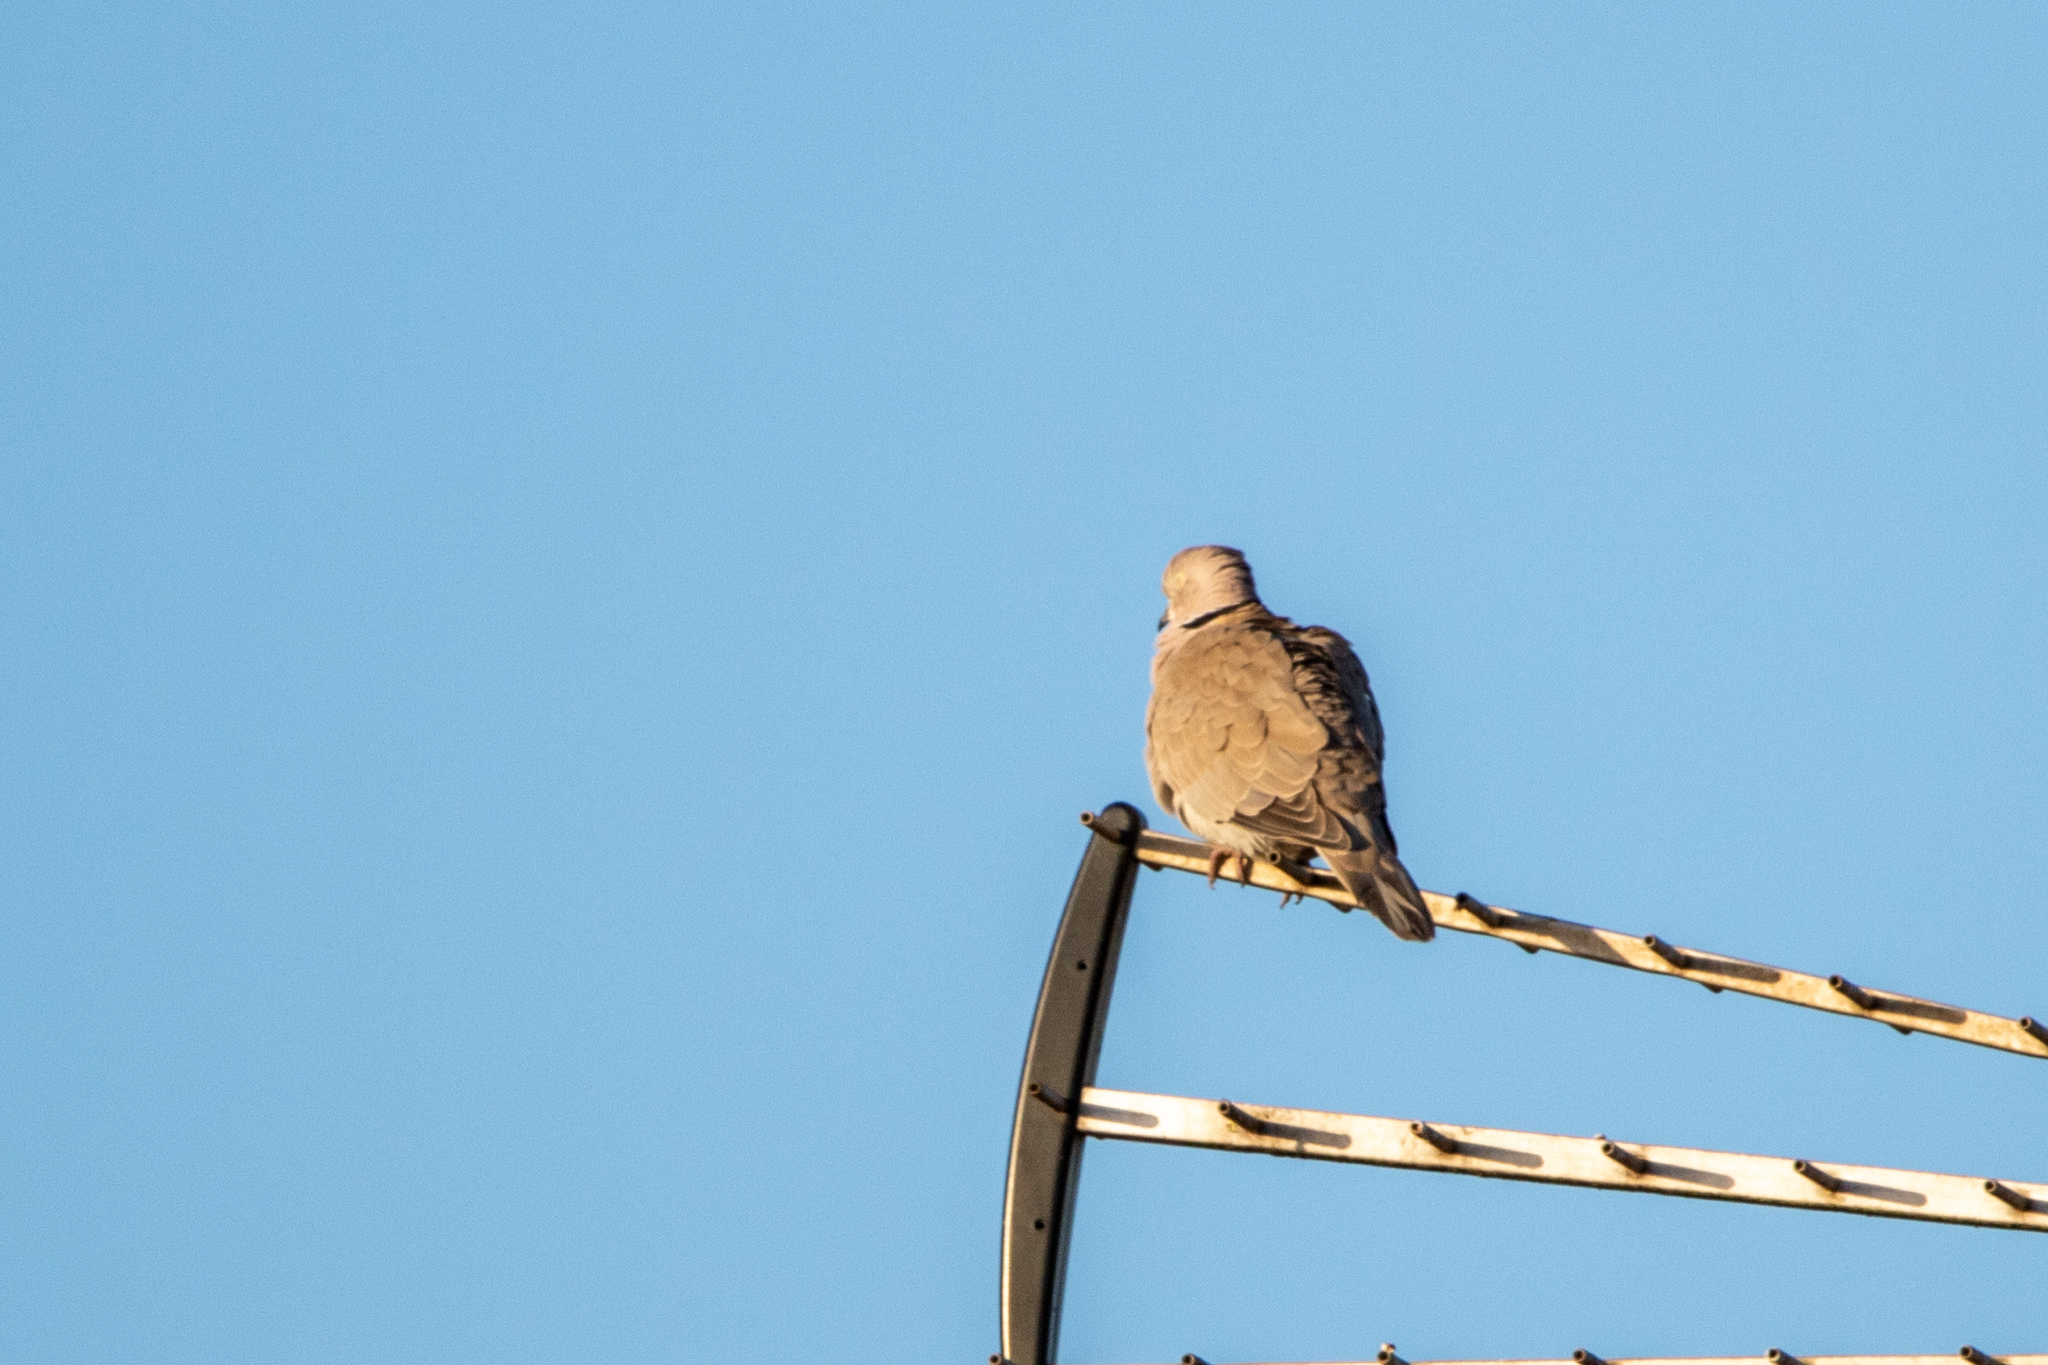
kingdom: Animalia
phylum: Chordata
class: Aves
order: Columbiformes
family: Columbidae
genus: Streptopelia
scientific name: Streptopelia decaocto
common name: Eurasian collared dove
